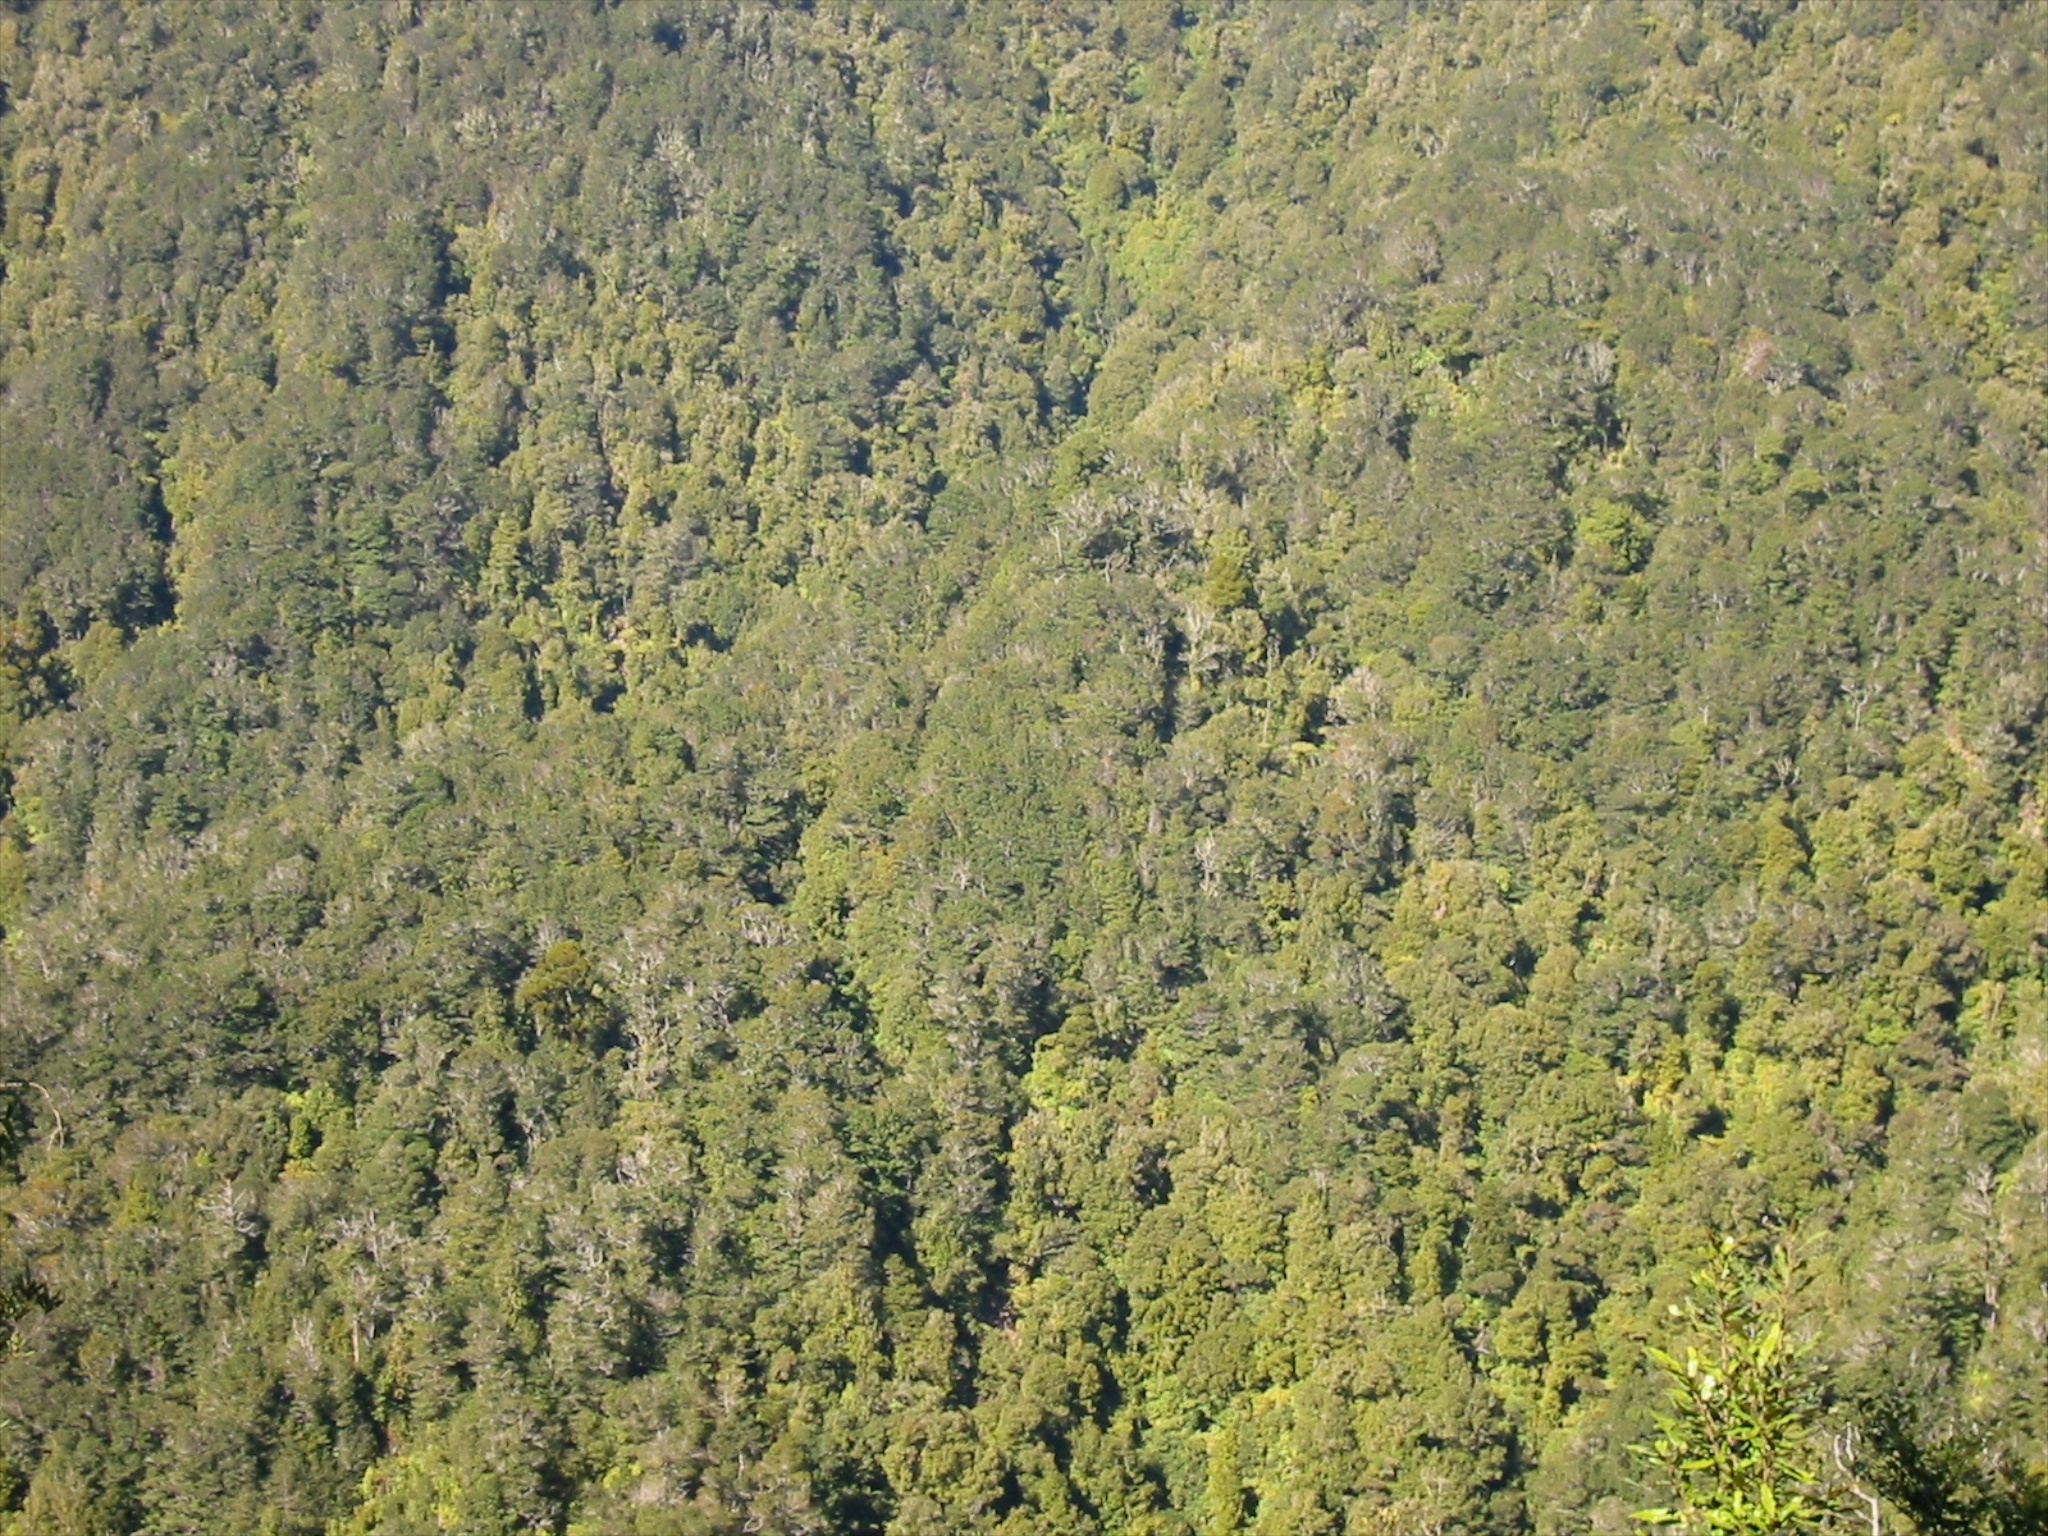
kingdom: Plantae
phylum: Tracheophyta
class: Magnoliopsida
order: Fagales
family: Nothofagaceae
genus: Nothofagus
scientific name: Nothofagus truncata
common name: Hard beech
